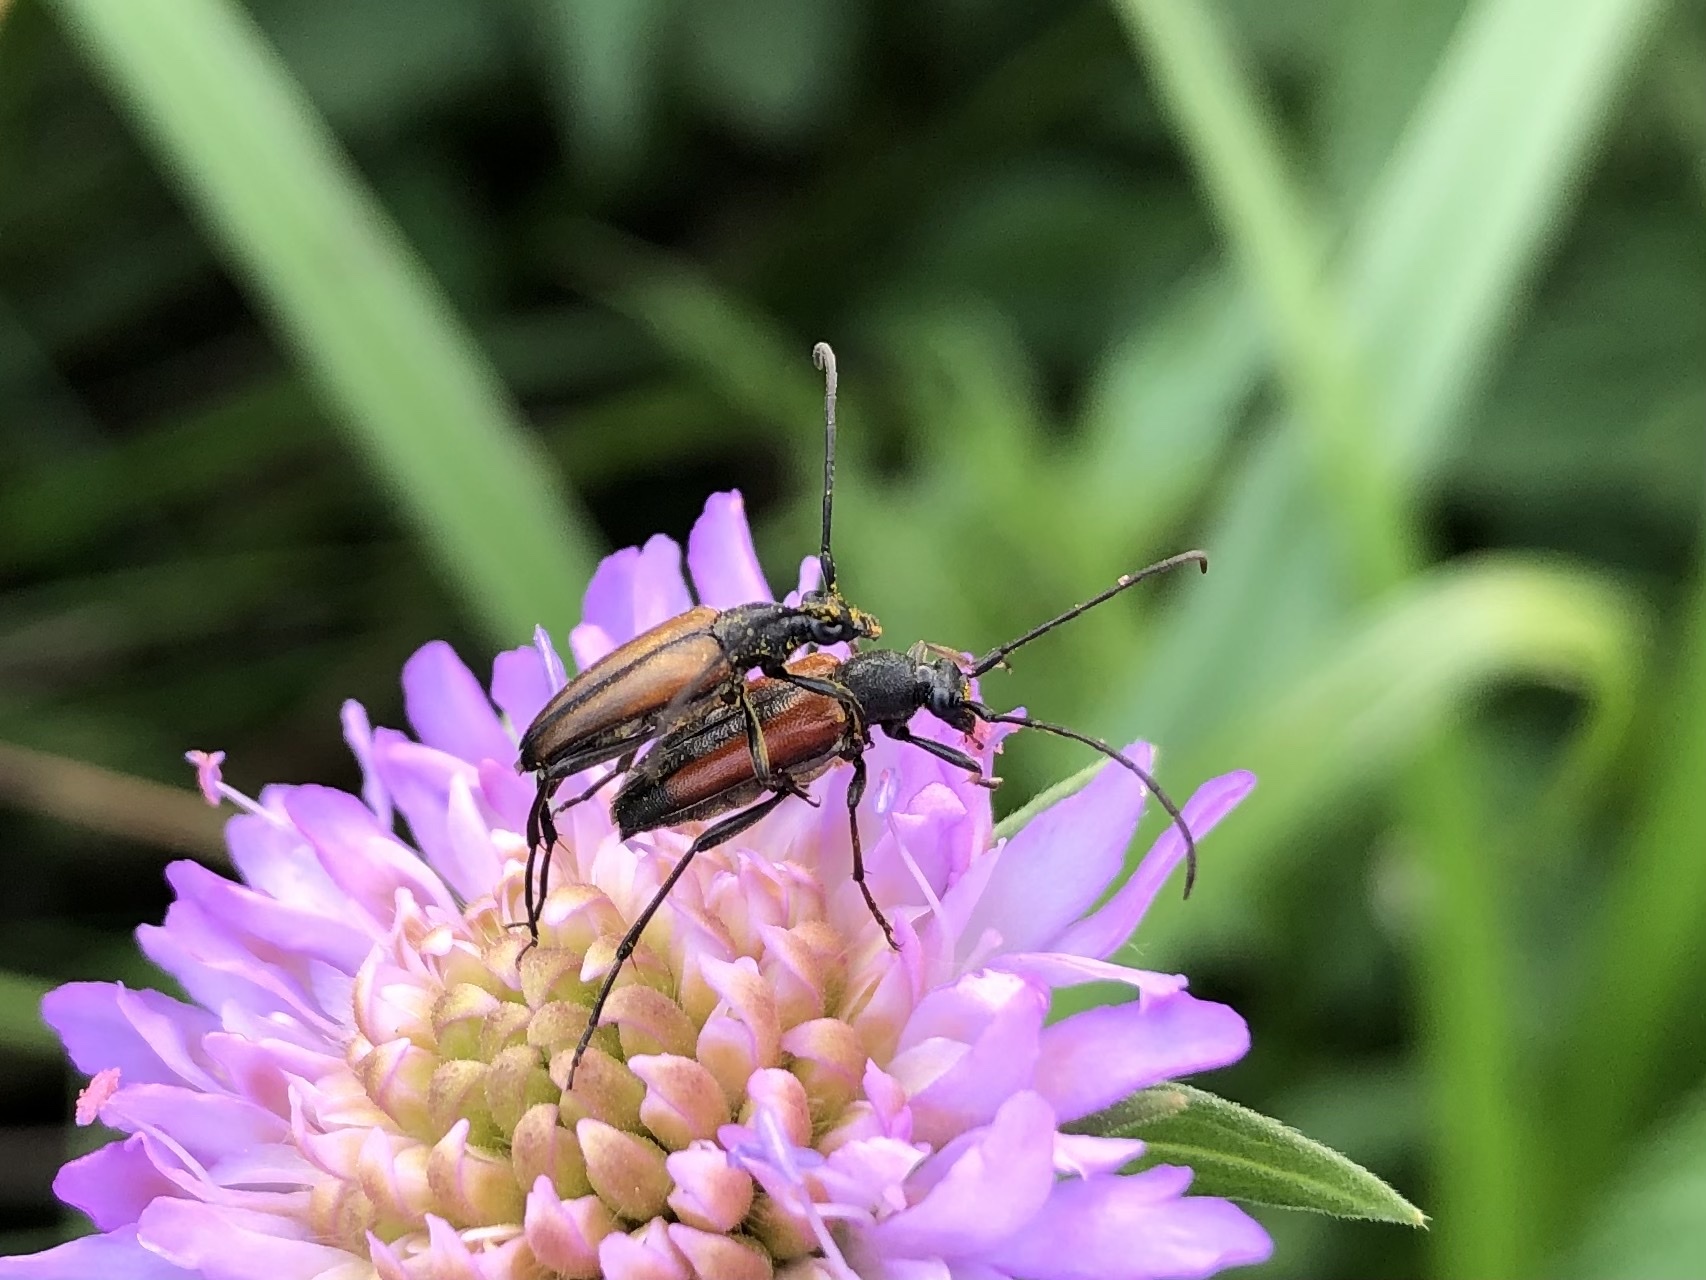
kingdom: Animalia
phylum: Arthropoda
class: Insecta
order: Coleoptera
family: Cerambycidae
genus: Stenurella
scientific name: Stenurella melanura
